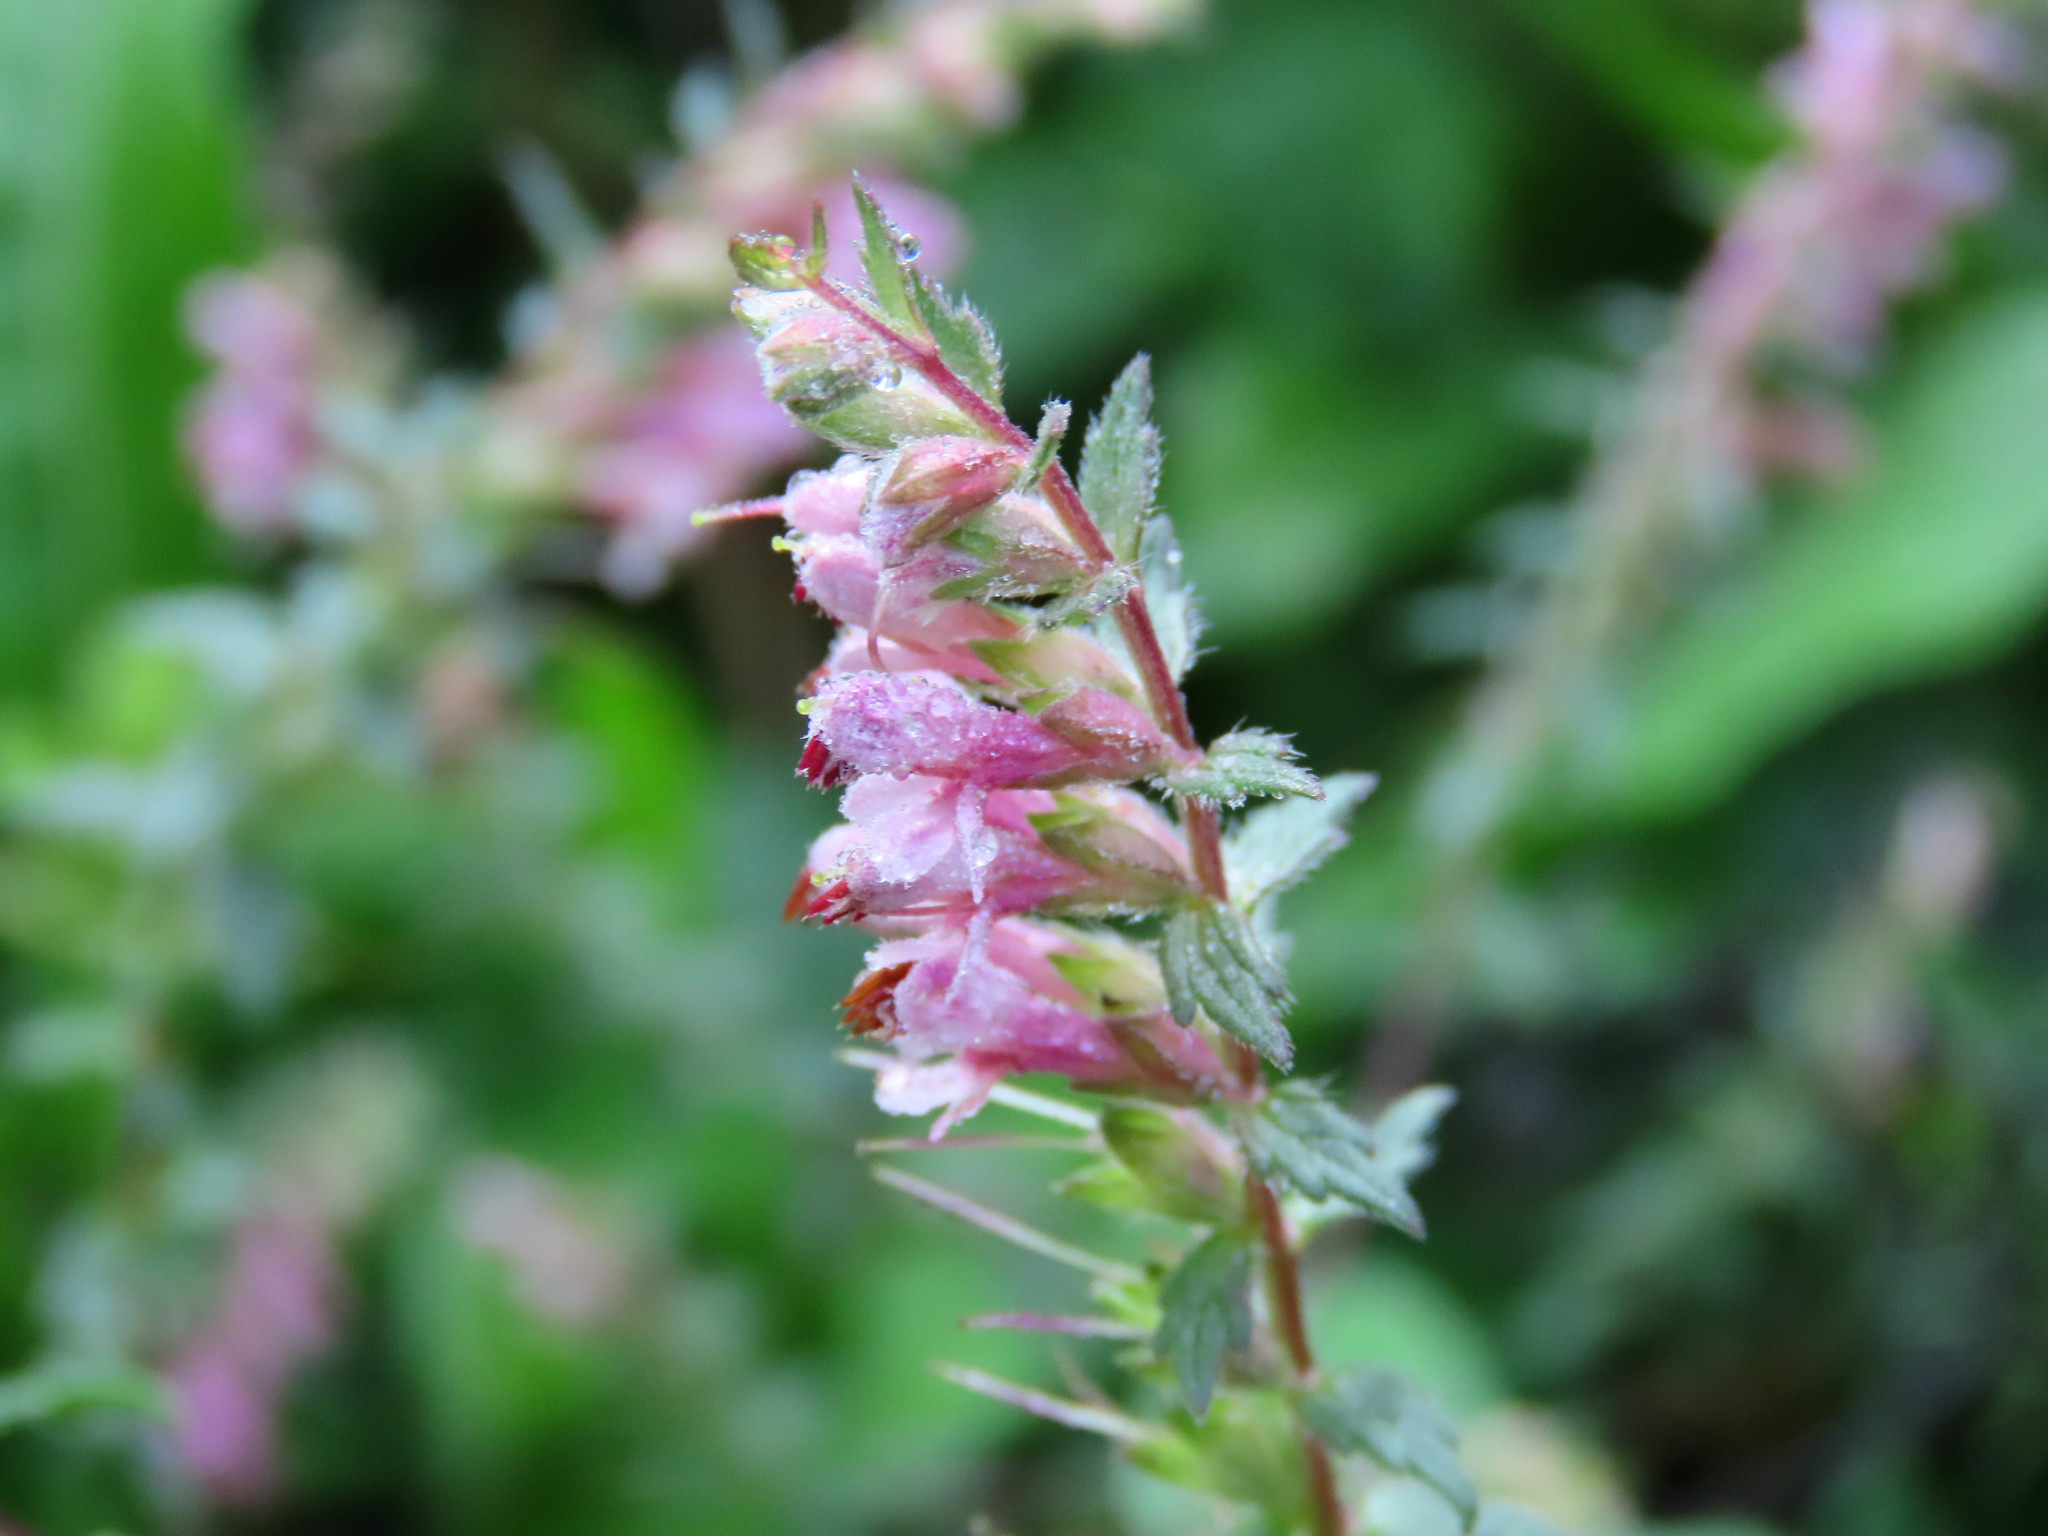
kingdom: Plantae
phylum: Tracheophyta
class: Magnoliopsida
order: Lamiales
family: Orobanchaceae
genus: Odontites
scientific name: Odontites vulgaris
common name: Broomrape
